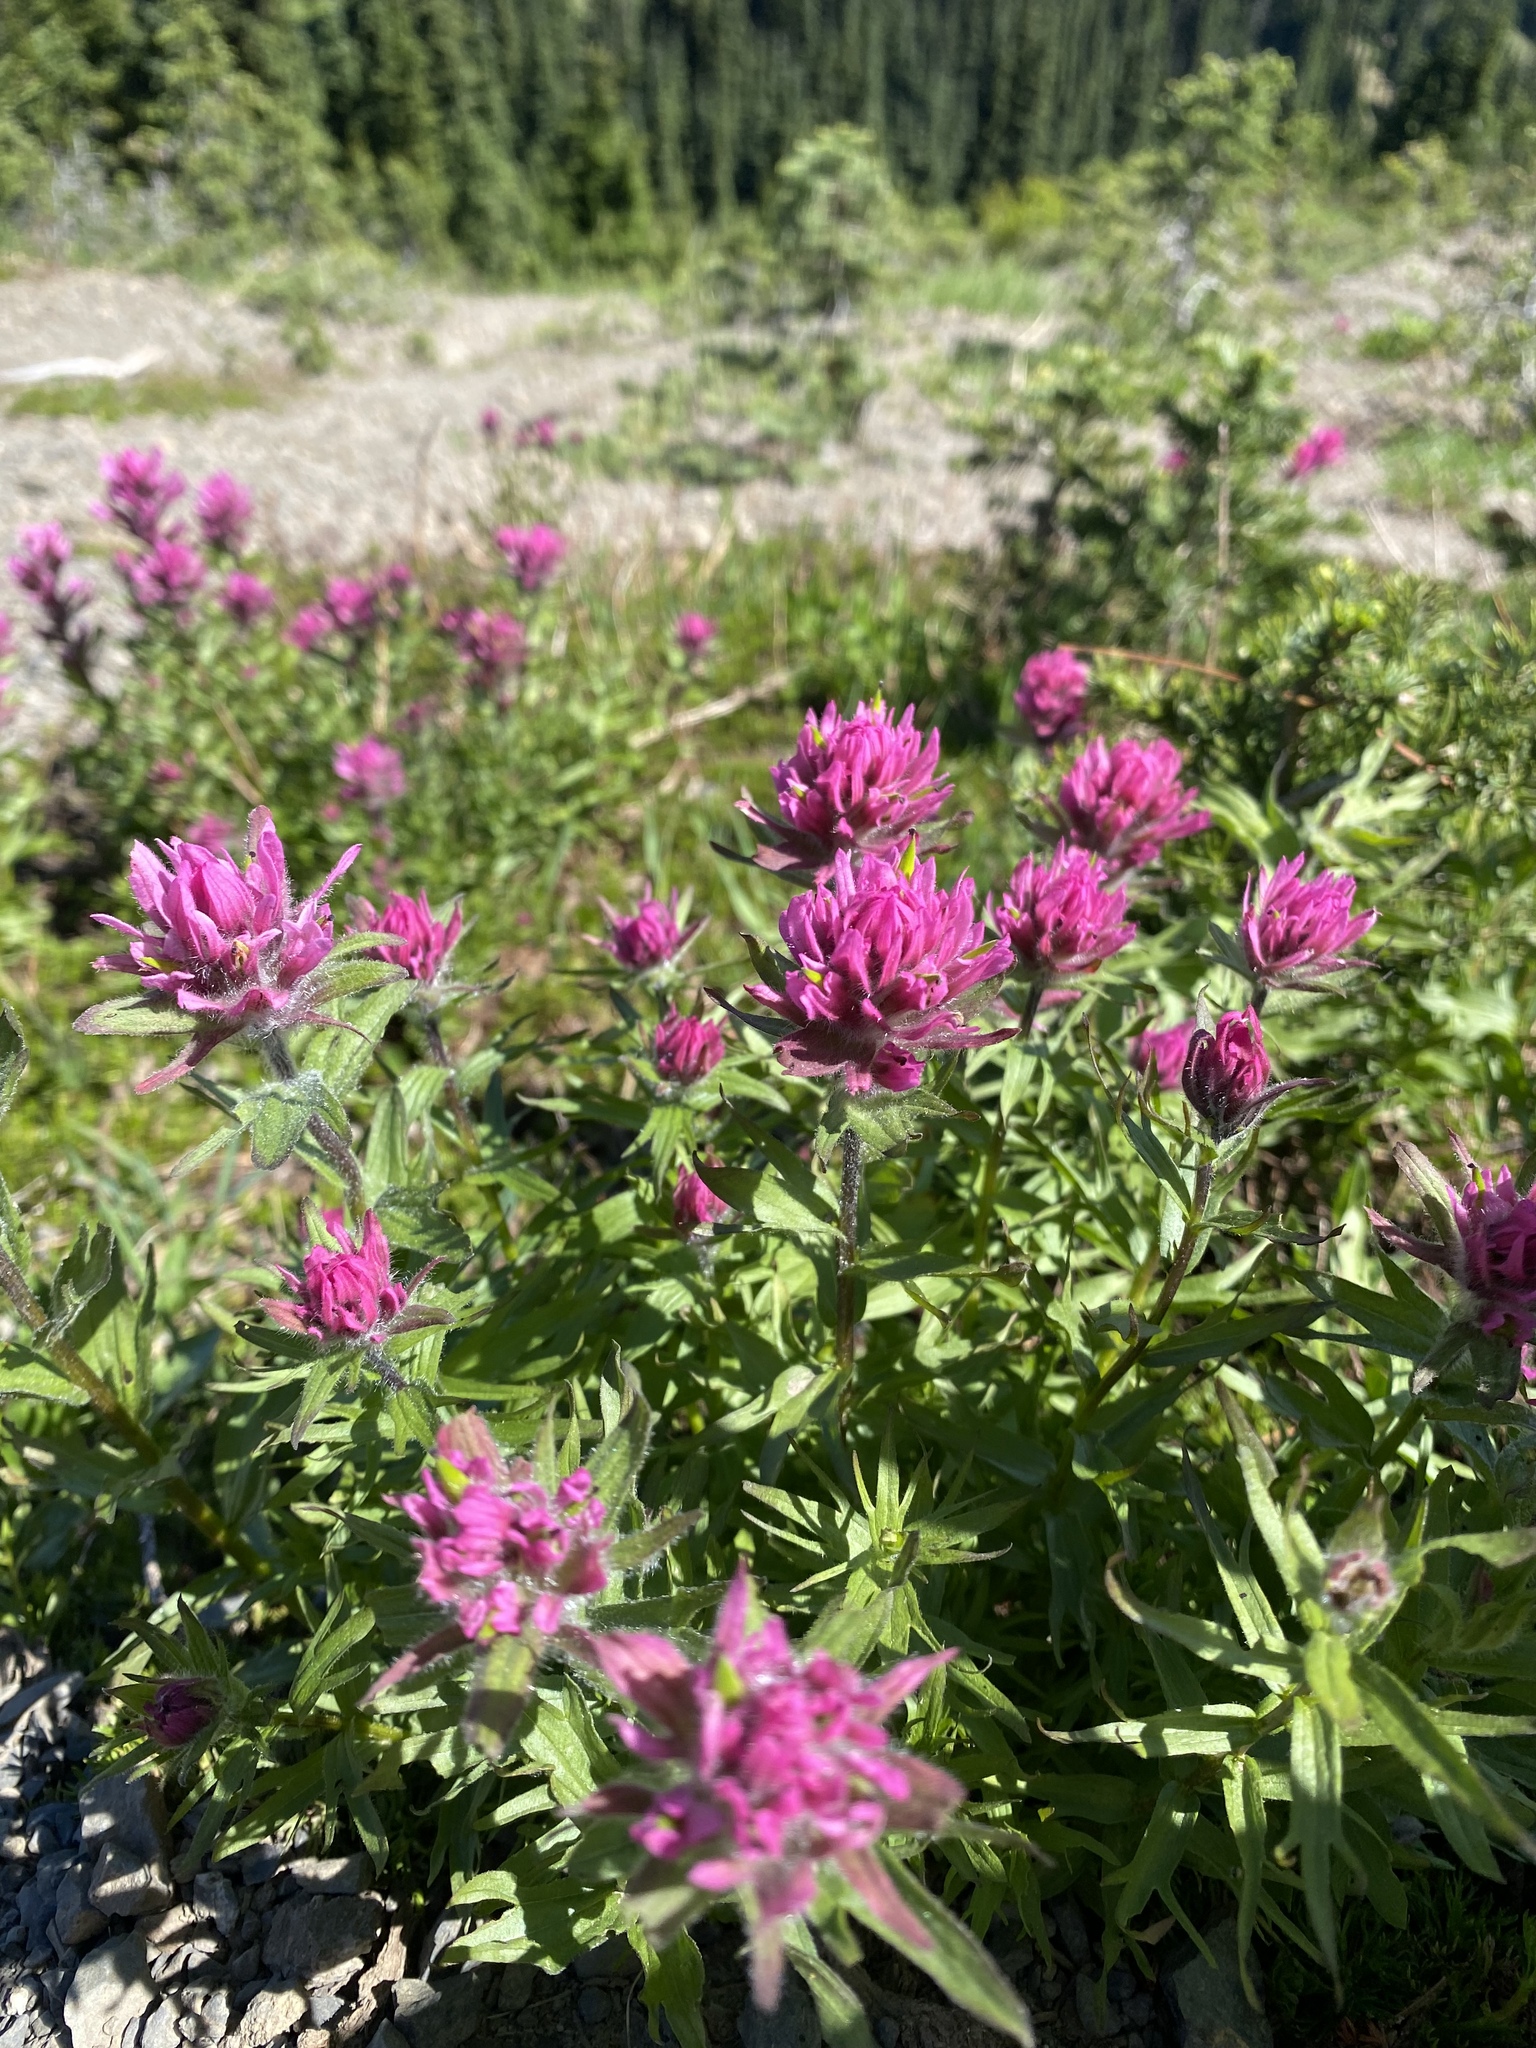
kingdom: Plantae
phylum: Tracheophyta
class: Magnoliopsida
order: Lamiales
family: Orobanchaceae
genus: Castilleja
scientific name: Castilleja parviflora
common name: Mountain paintbrush
